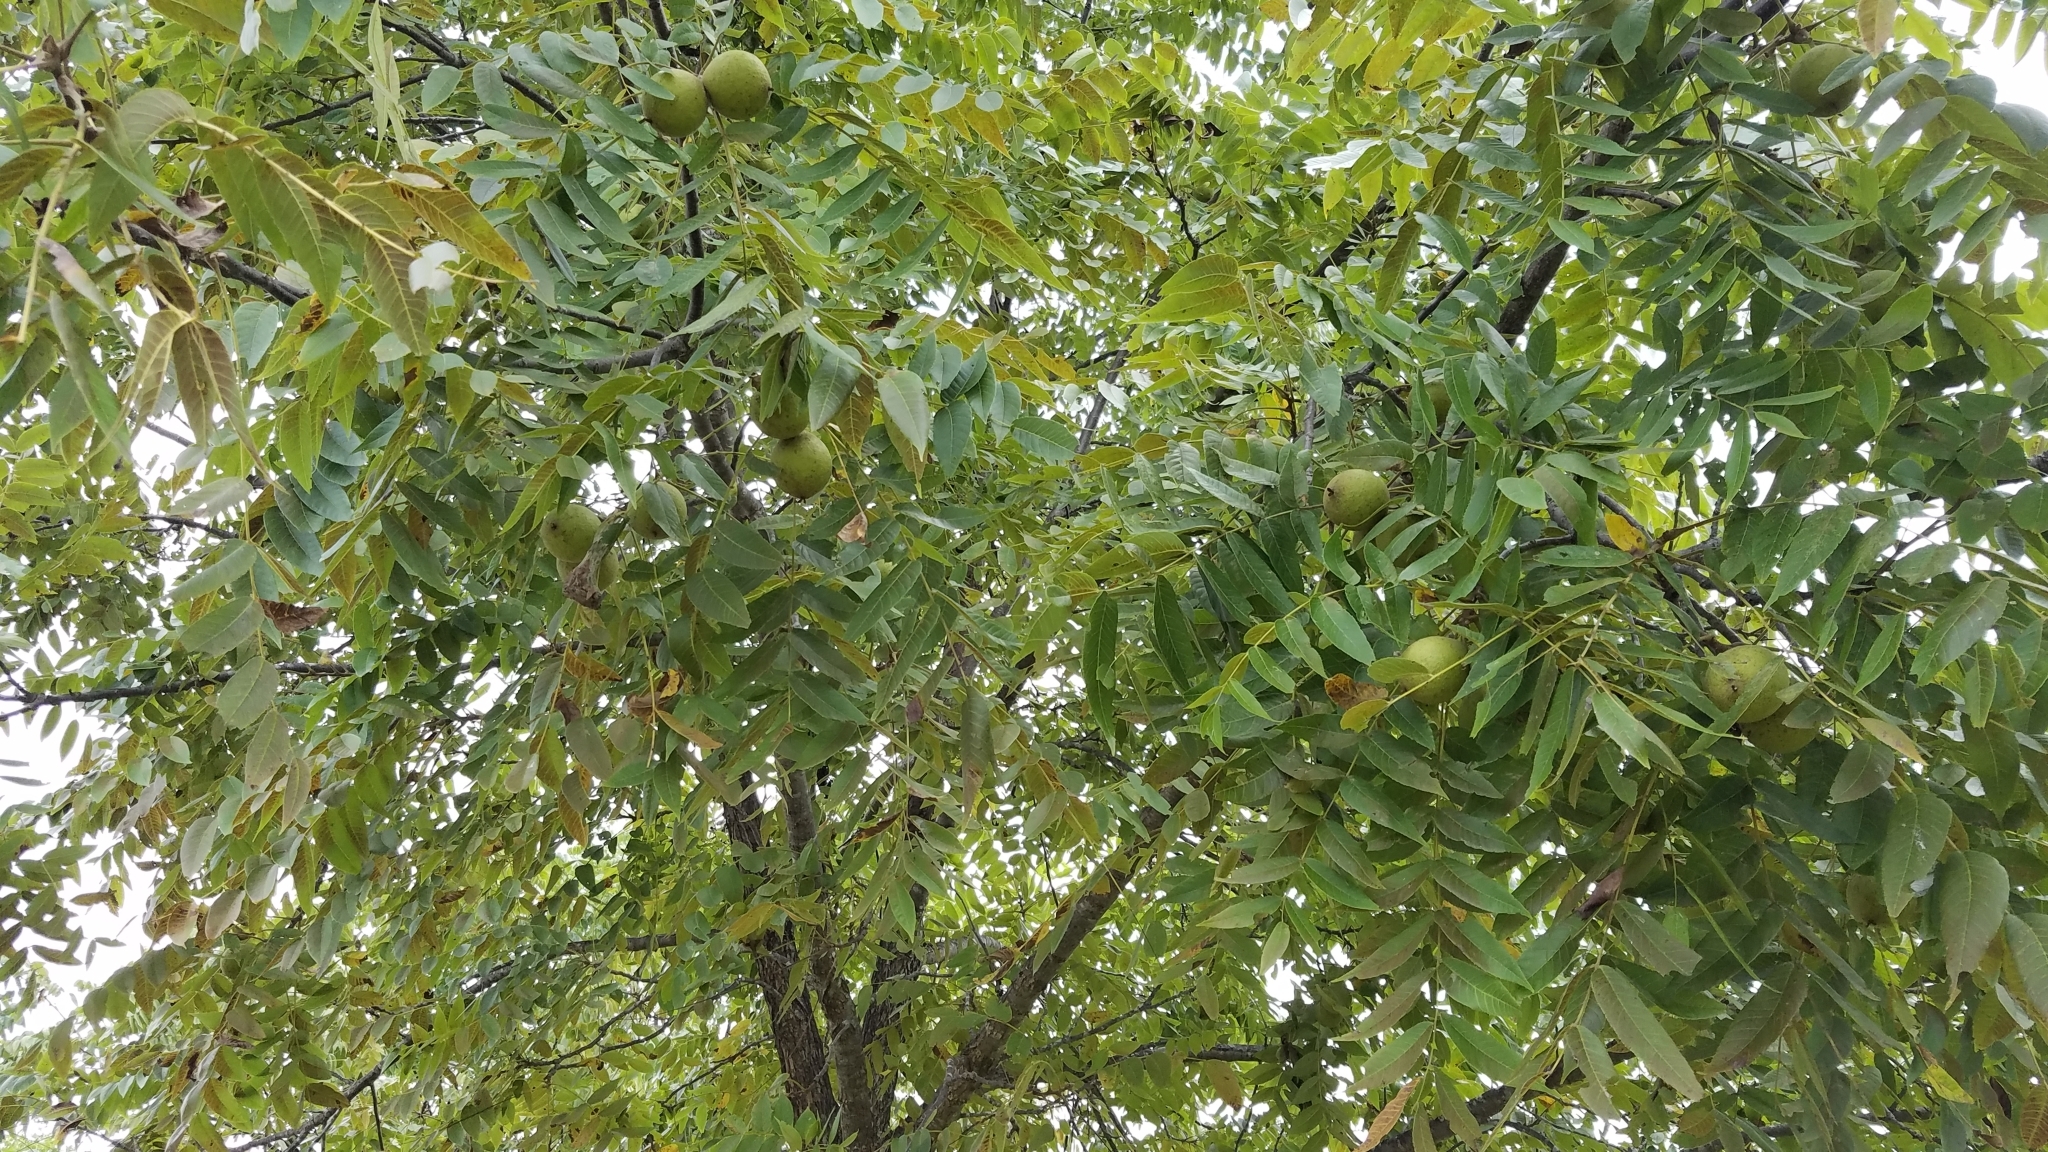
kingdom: Plantae
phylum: Tracheophyta
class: Magnoliopsida
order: Fagales
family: Juglandaceae
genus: Juglans
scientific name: Juglans nigra
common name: Black walnut
